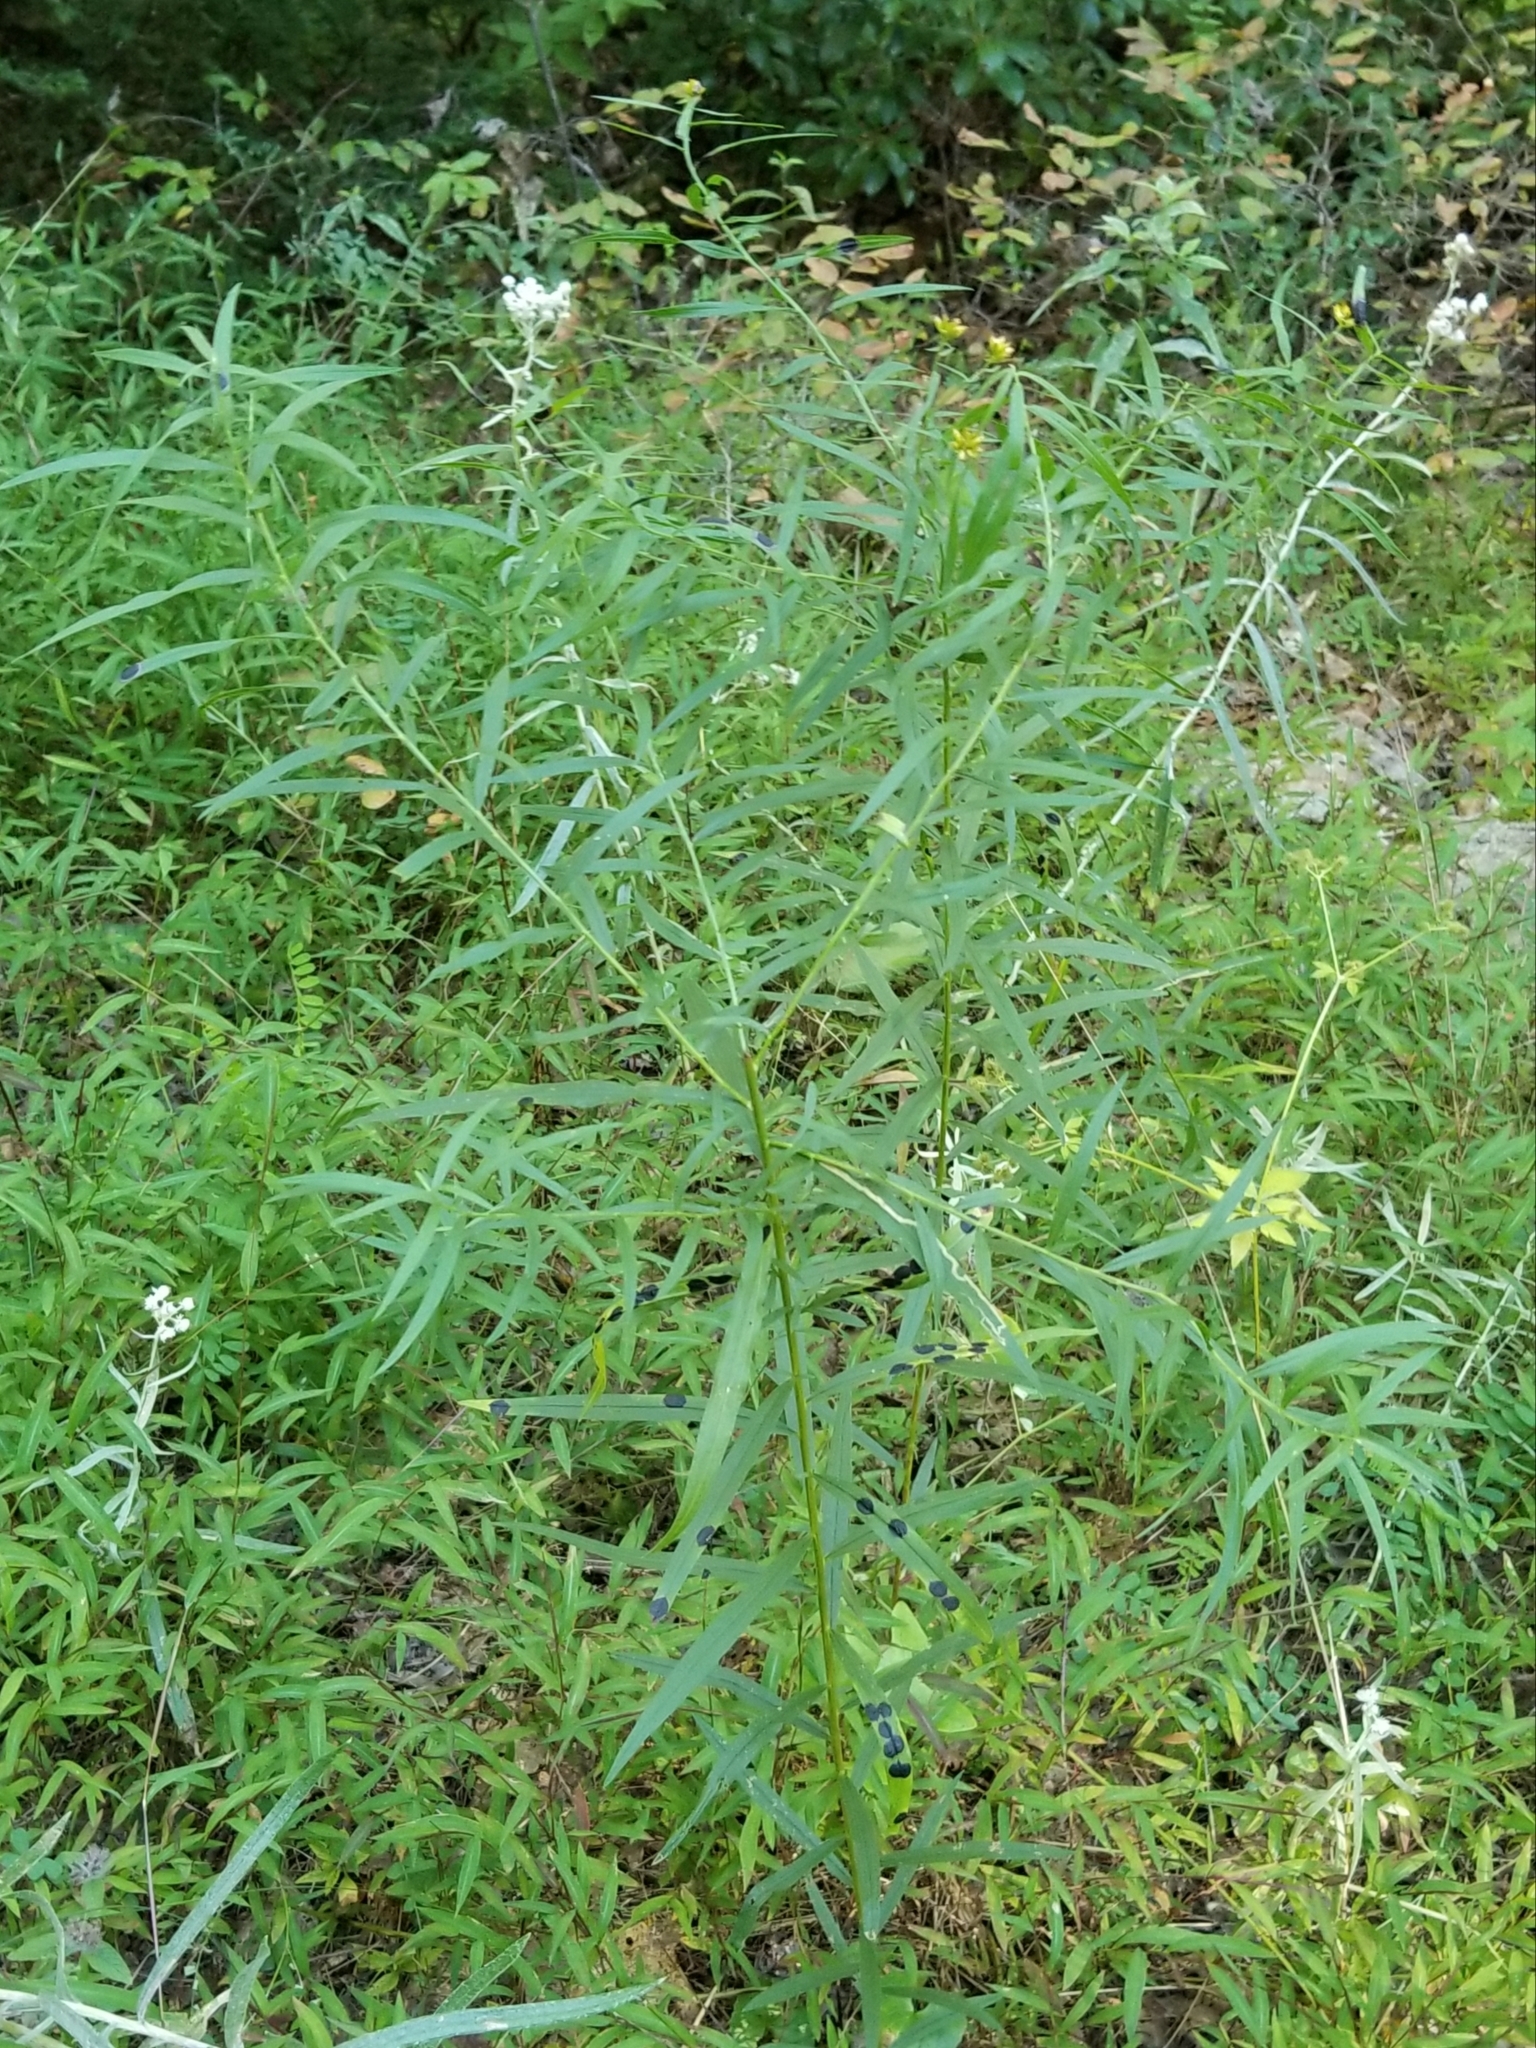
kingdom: Animalia
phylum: Arthropoda
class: Insecta
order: Diptera
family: Cecidomyiidae
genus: Asteromyia
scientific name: Asteromyia euthamiae
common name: Euthamia leaf gall midge
